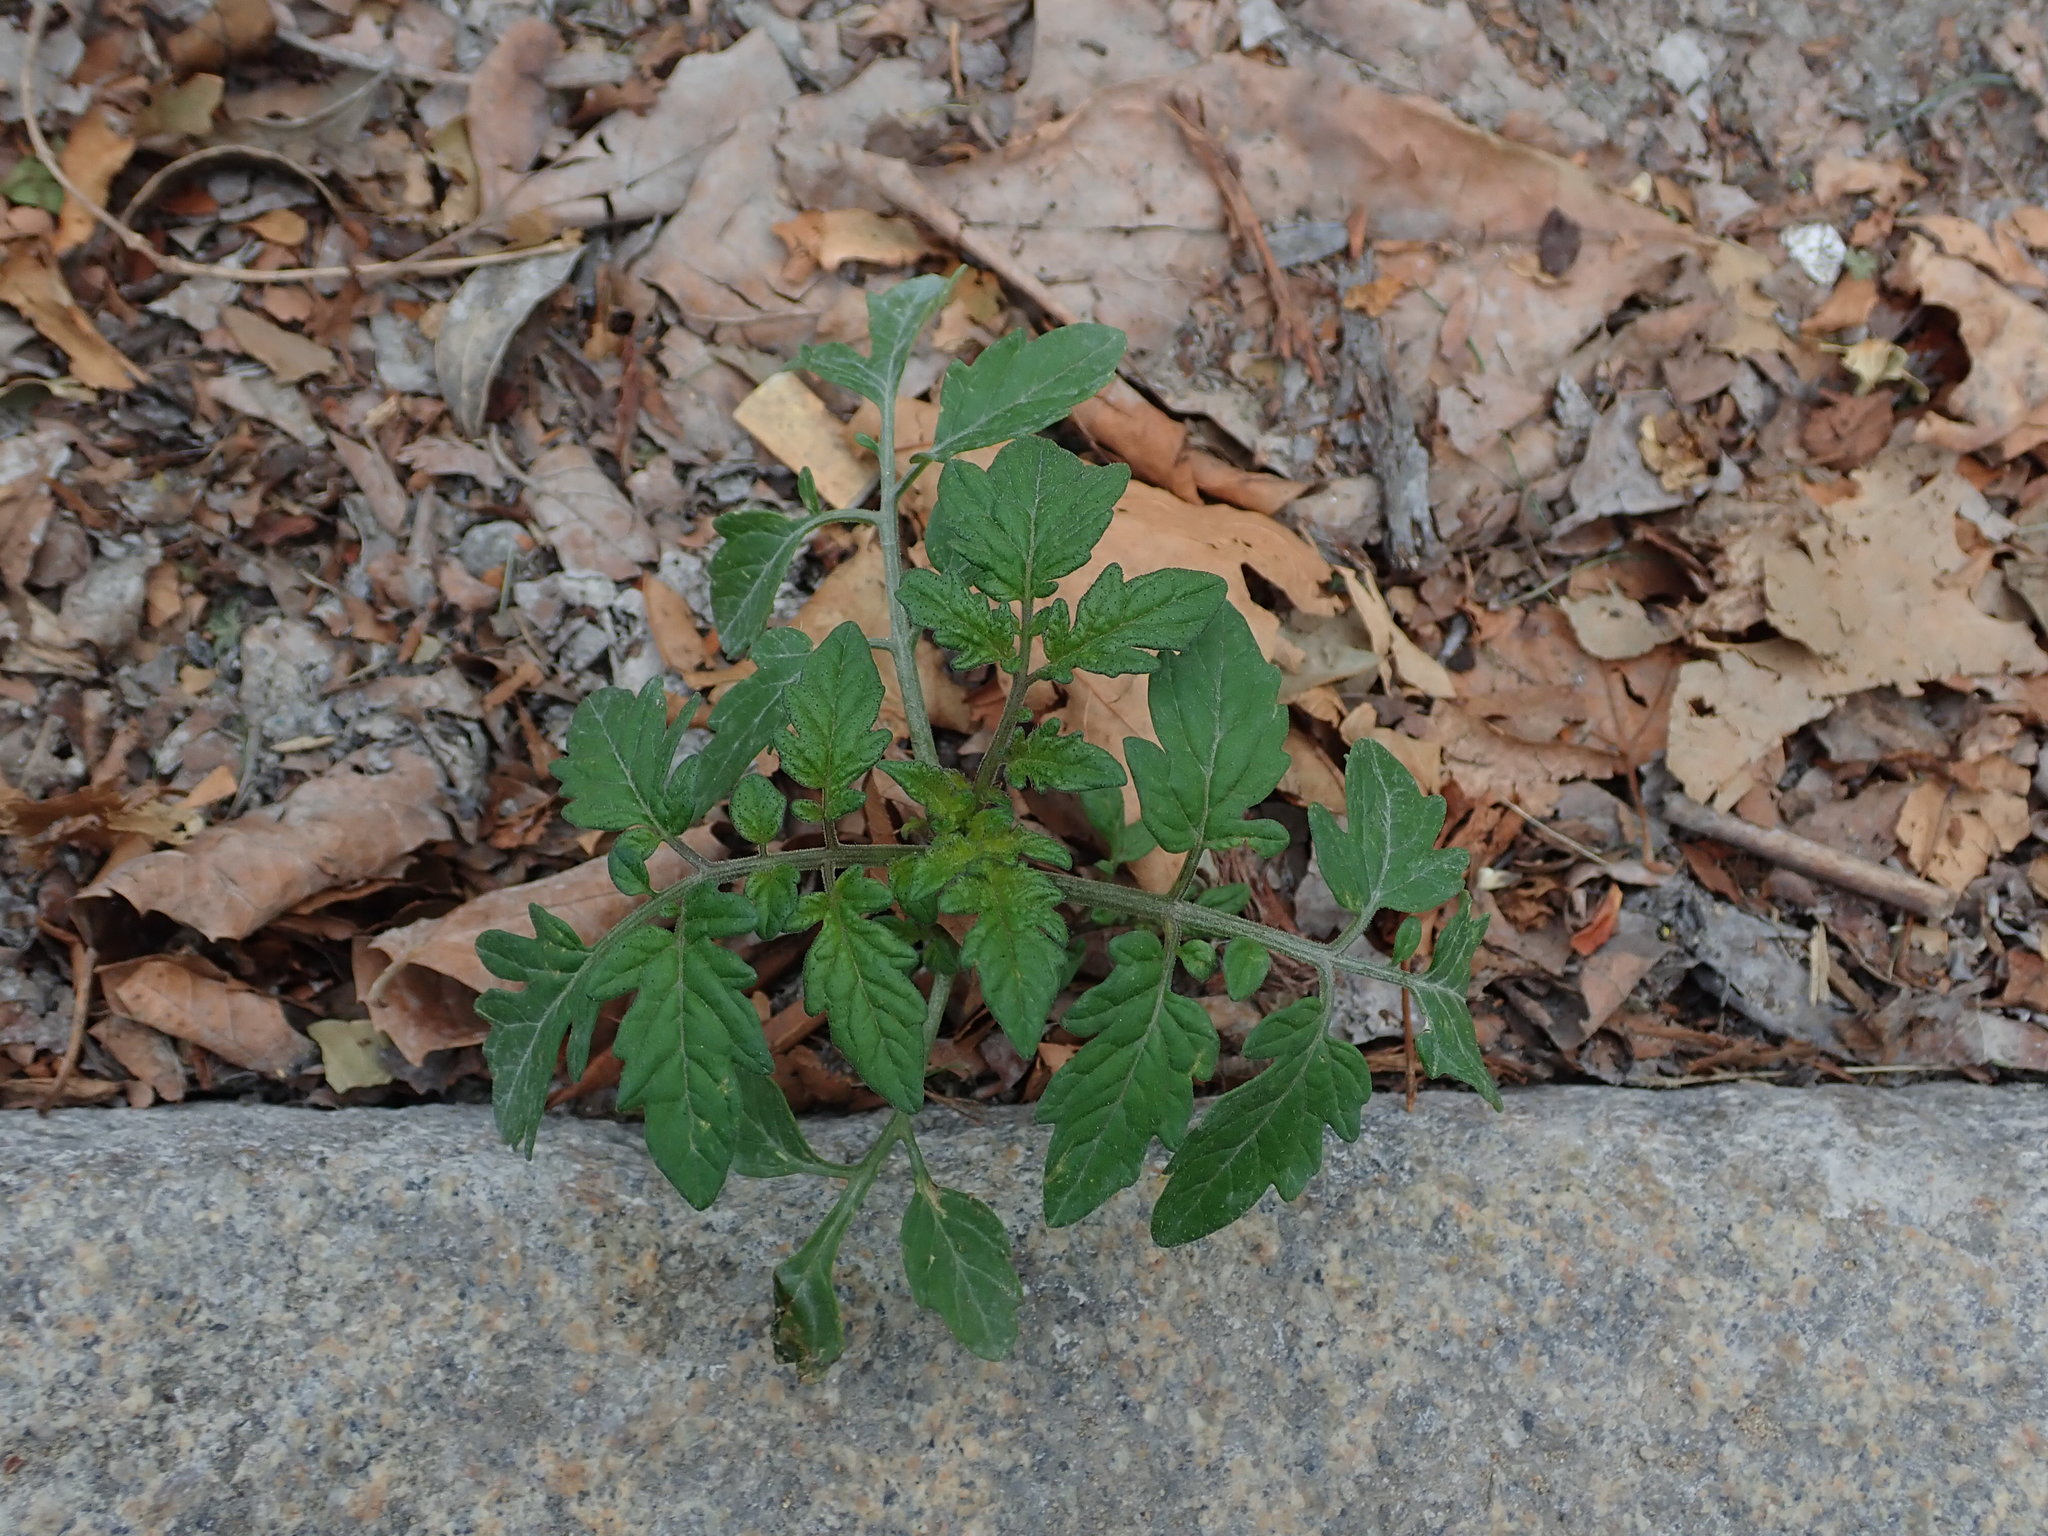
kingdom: Plantae
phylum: Tracheophyta
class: Magnoliopsida
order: Solanales
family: Solanaceae
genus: Solanum
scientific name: Solanum lycopersicum
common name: Garden tomato
